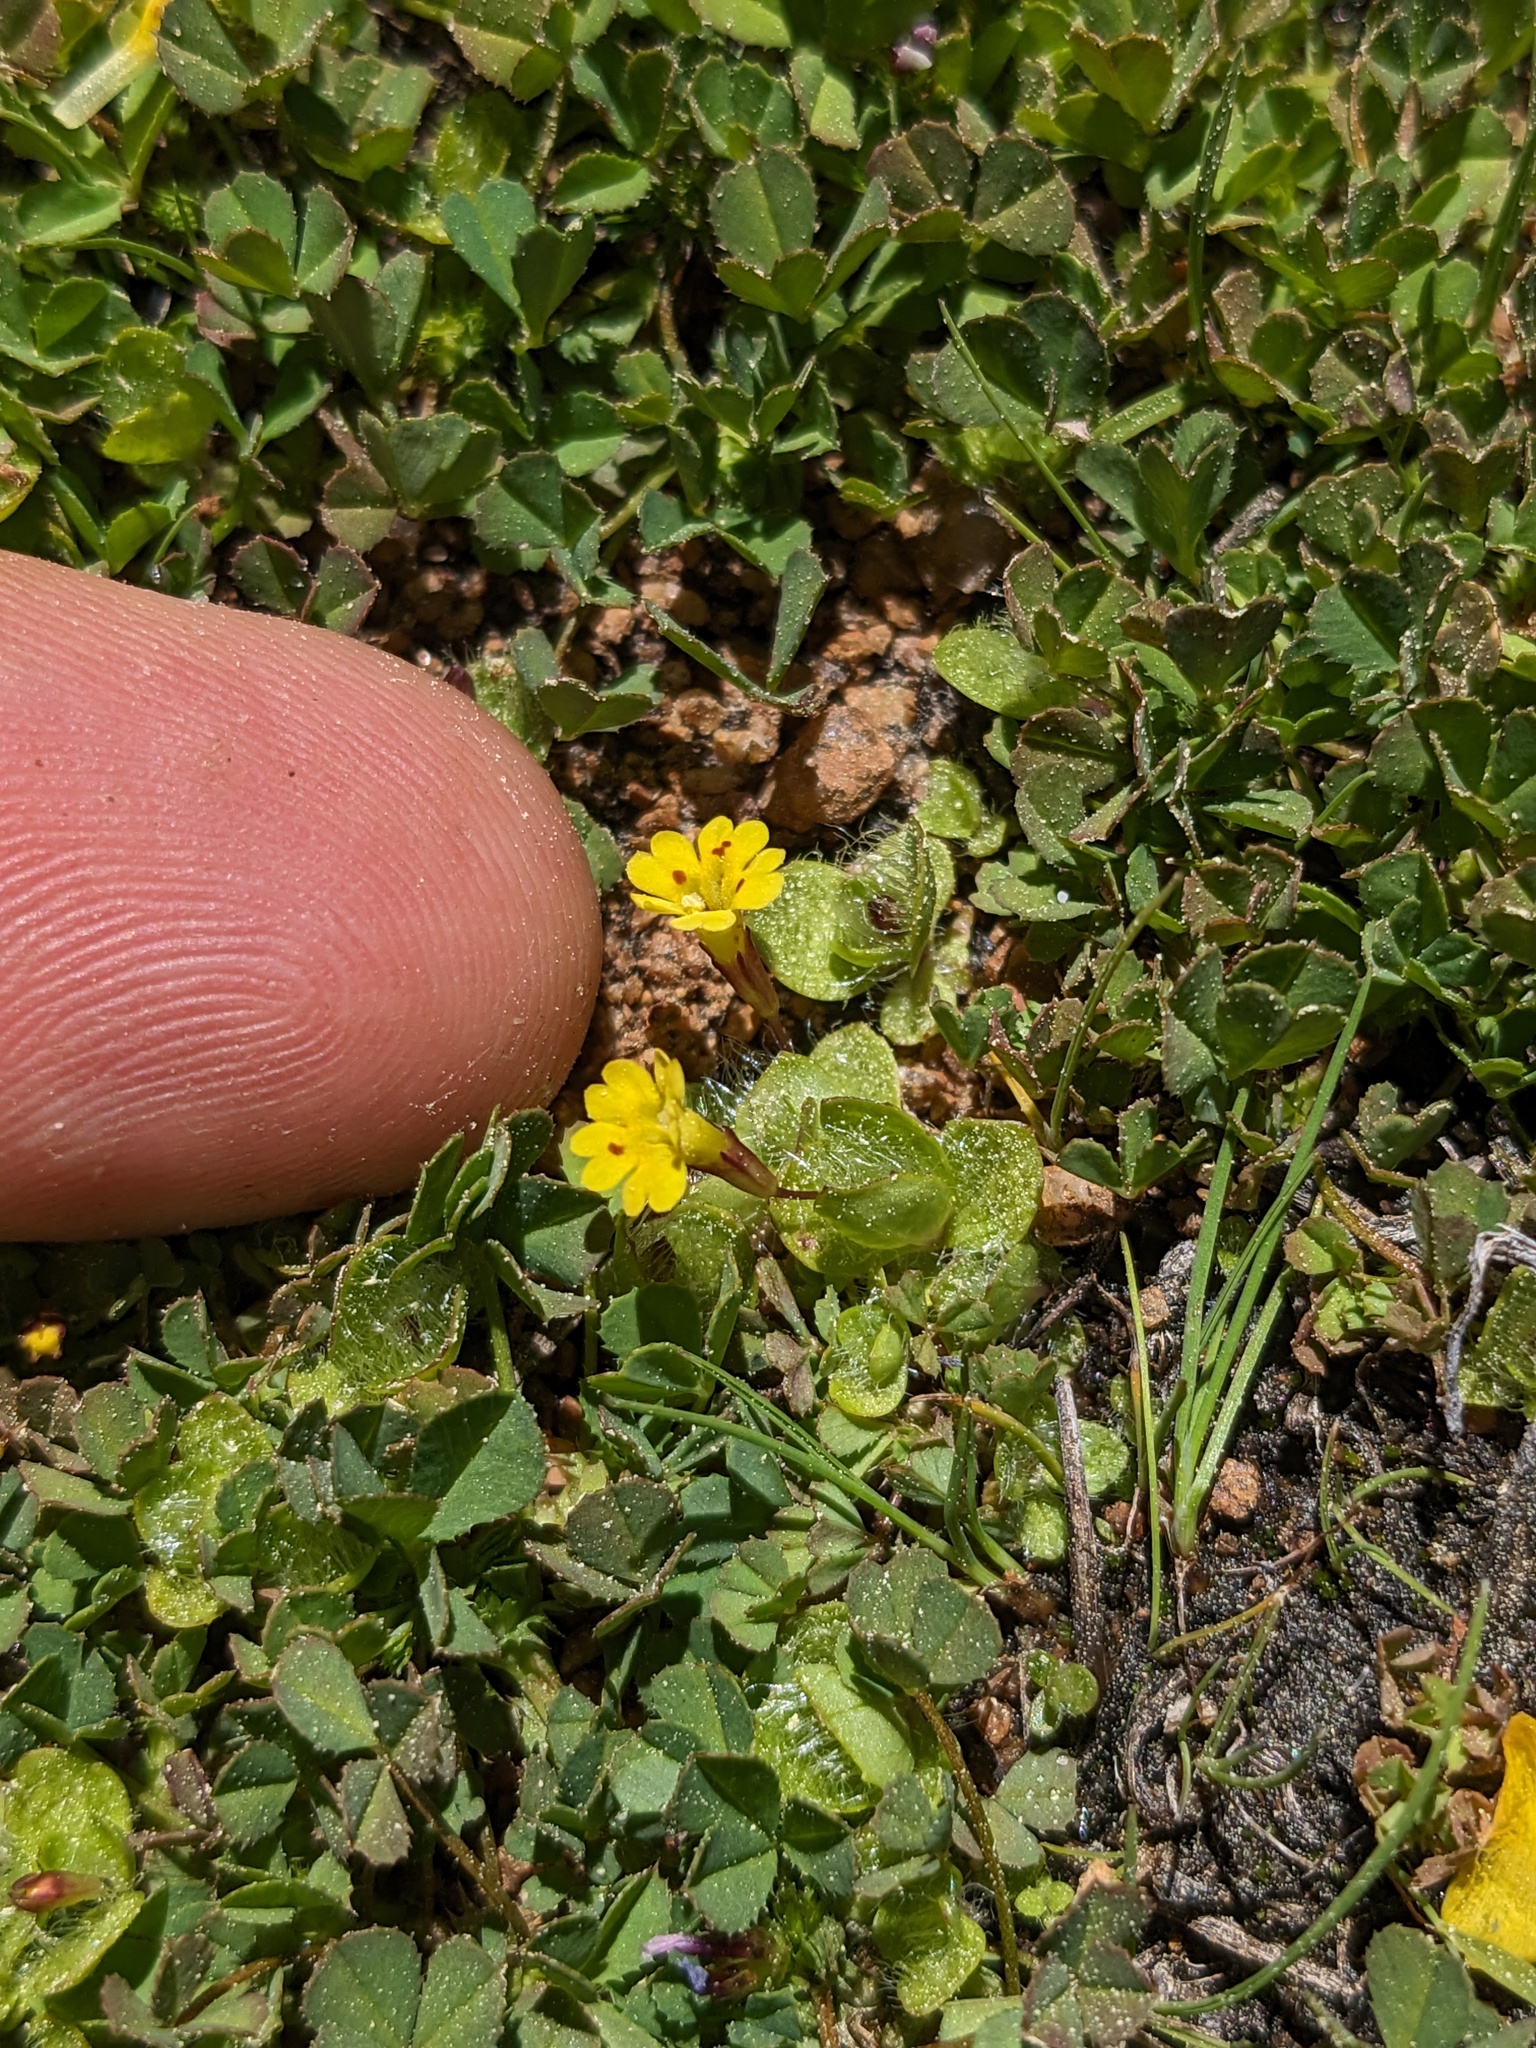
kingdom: Plantae
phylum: Tracheophyta
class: Magnoliopsida
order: Lamiales
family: Phrymaceae
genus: Erythranthe
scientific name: Erythranthe primuloides
